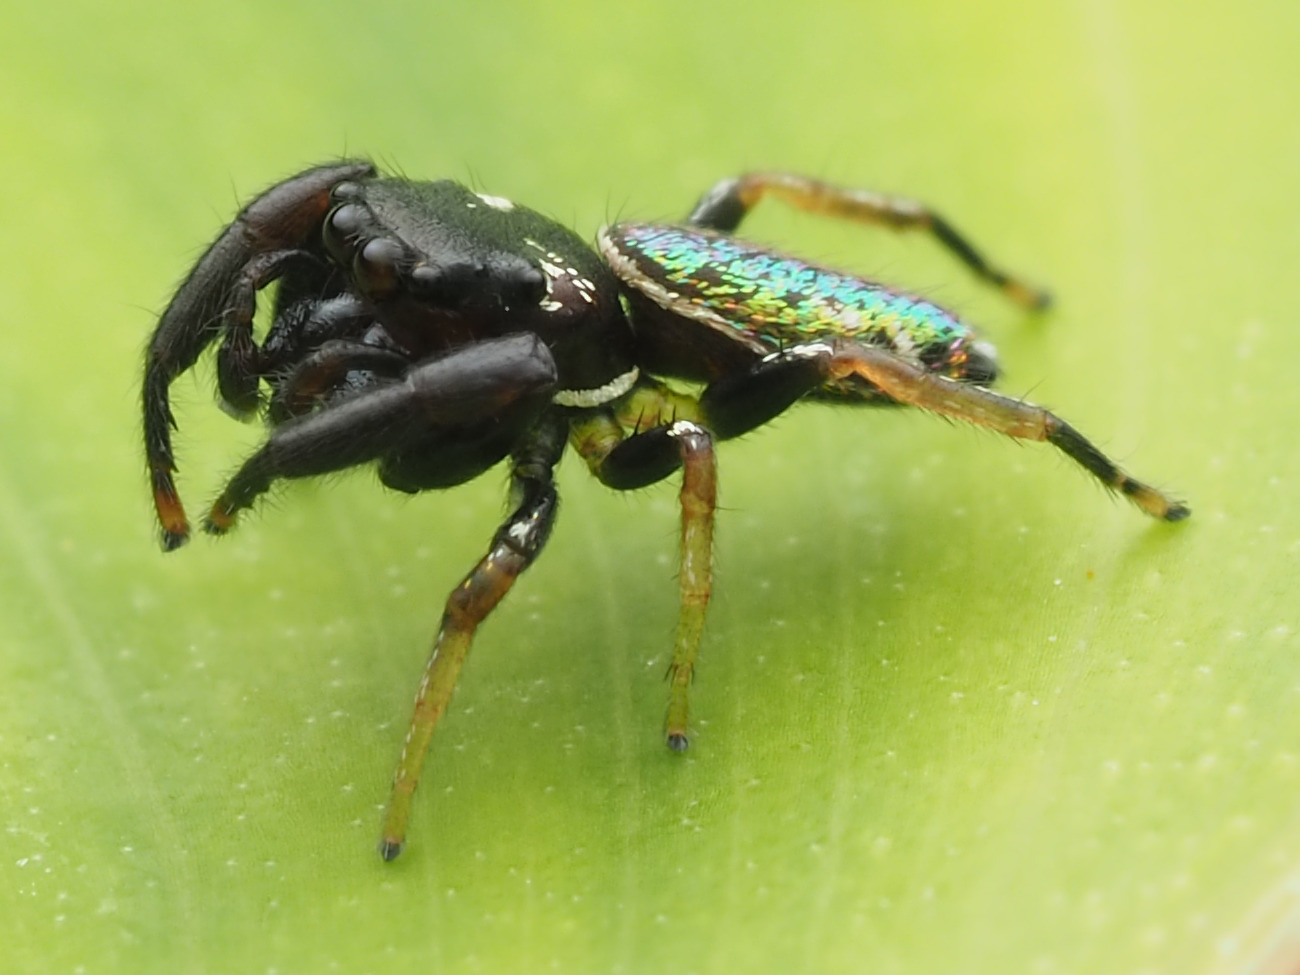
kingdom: Animalia
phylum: Arthropoda
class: Arachnida
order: Araneae
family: Salticidae
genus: Sassacus
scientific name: Sassacus vitis
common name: Jumping spiders
